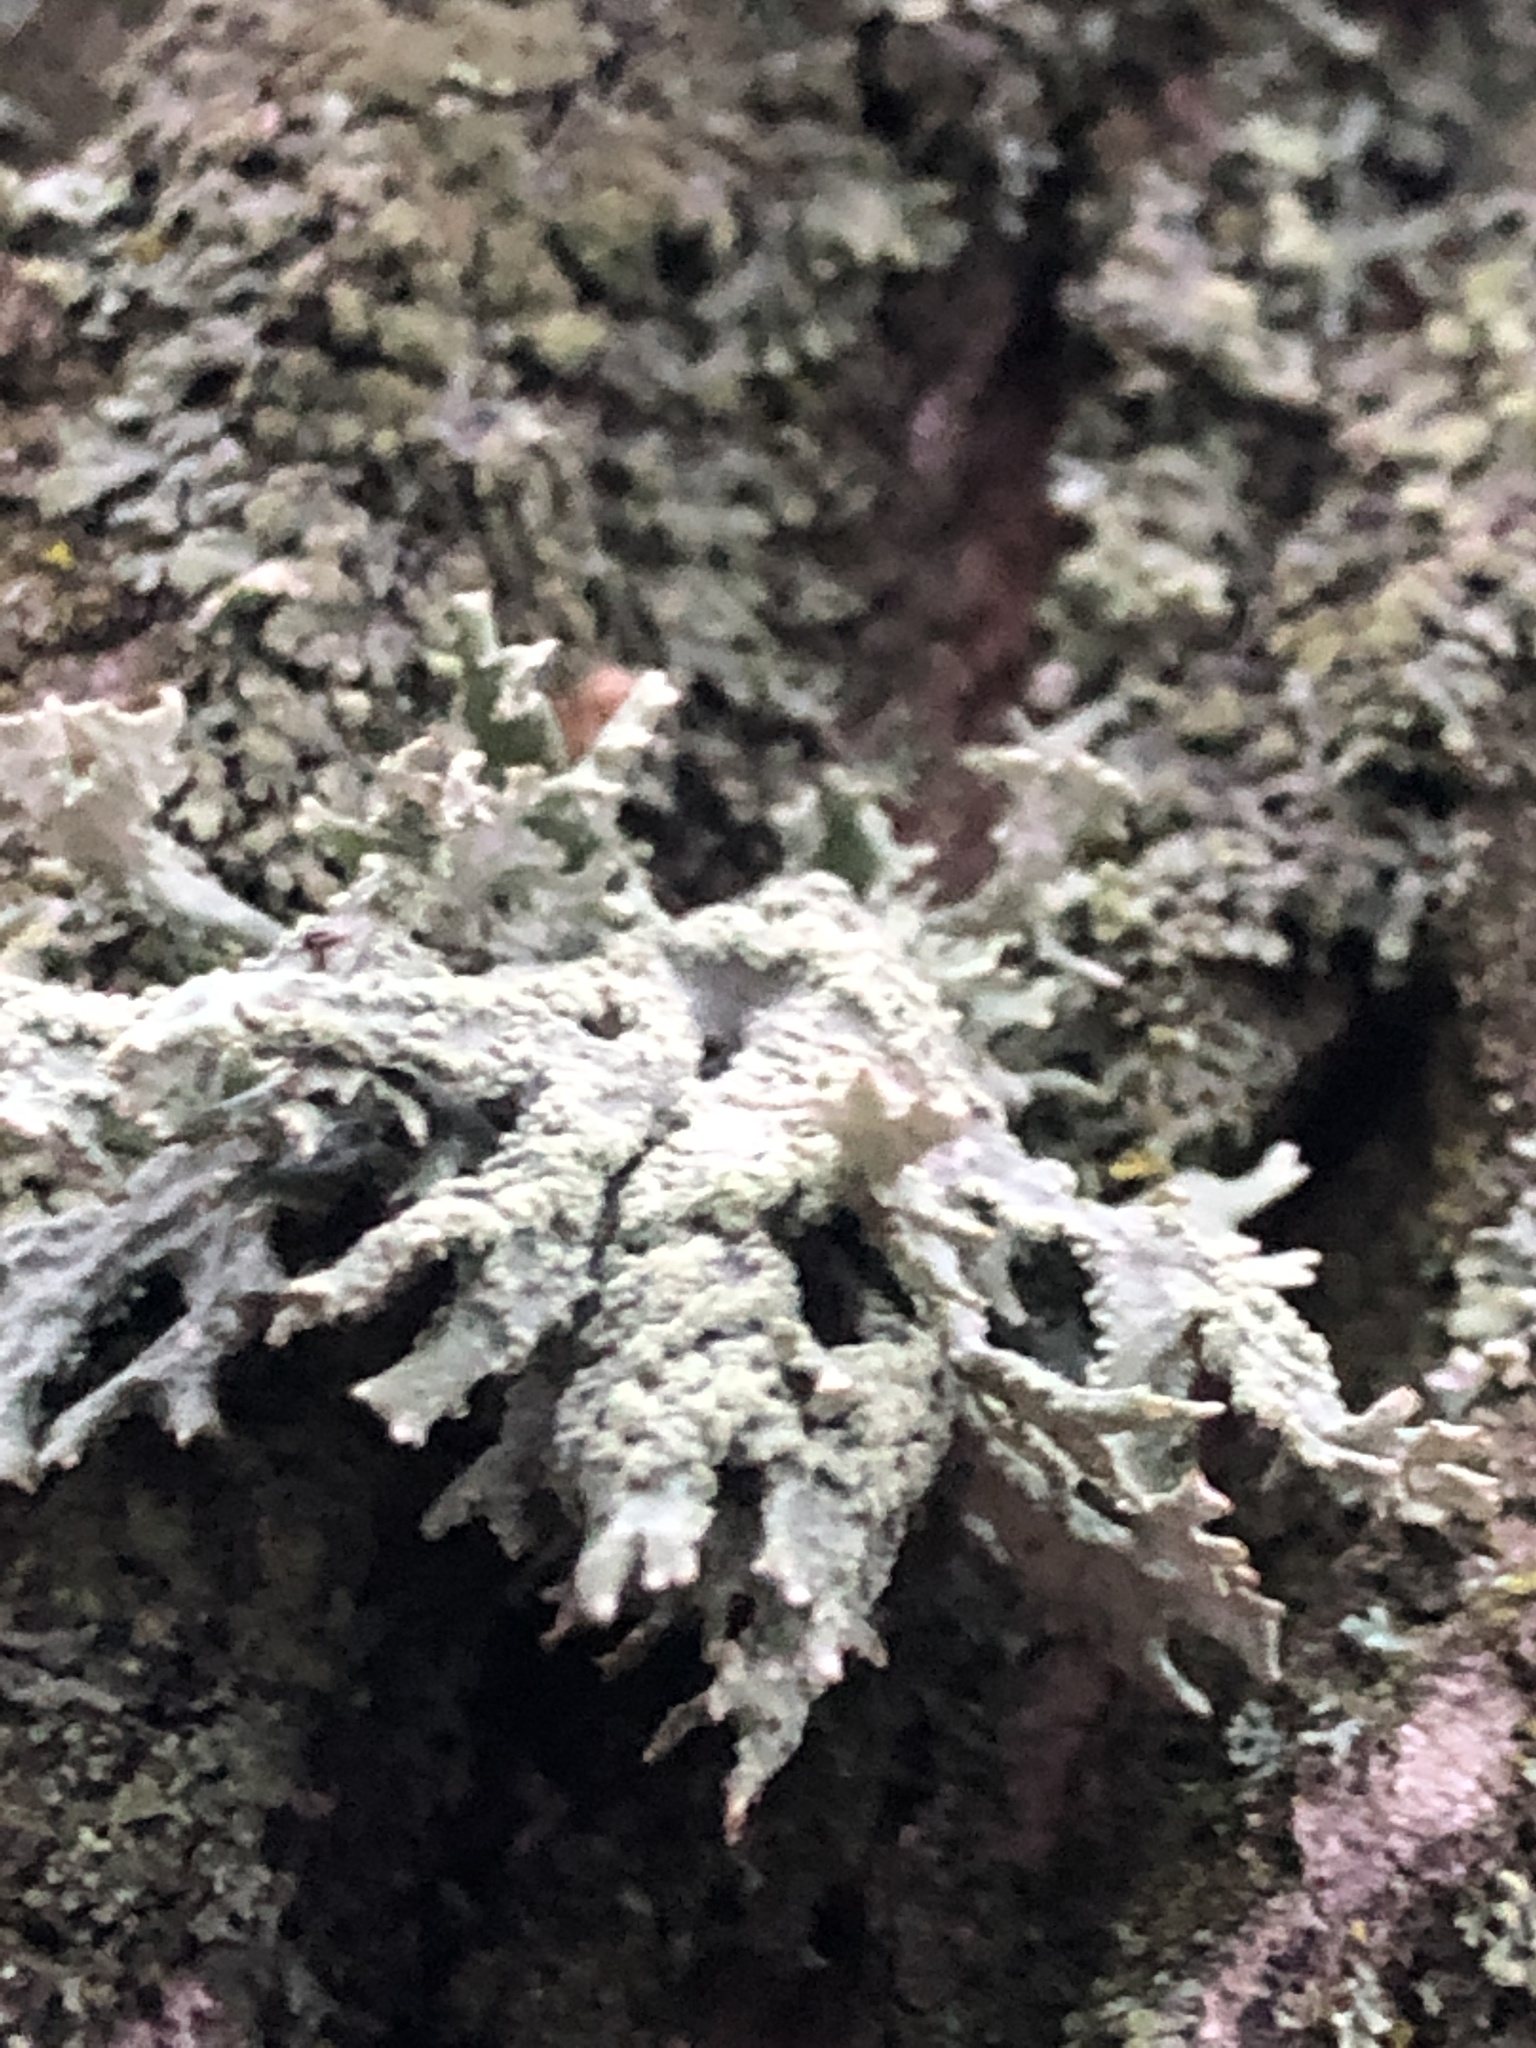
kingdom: Fungi
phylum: Ascomycota
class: Lecanoromycetes
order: Lecanorales
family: Parmeliaceae
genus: Evernia
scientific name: Evernia prunastri
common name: Oak moss
